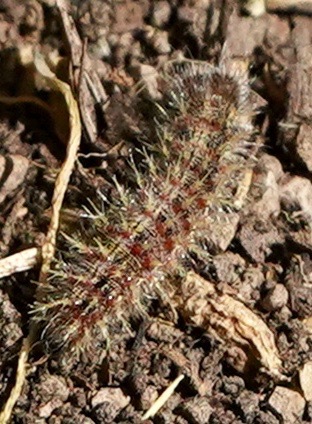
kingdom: Animalia
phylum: Arthropoda
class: Insecta
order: Lepidoptera
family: Nymphalidae
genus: Vanessa
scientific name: Vanessa cardui
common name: Painted lady
